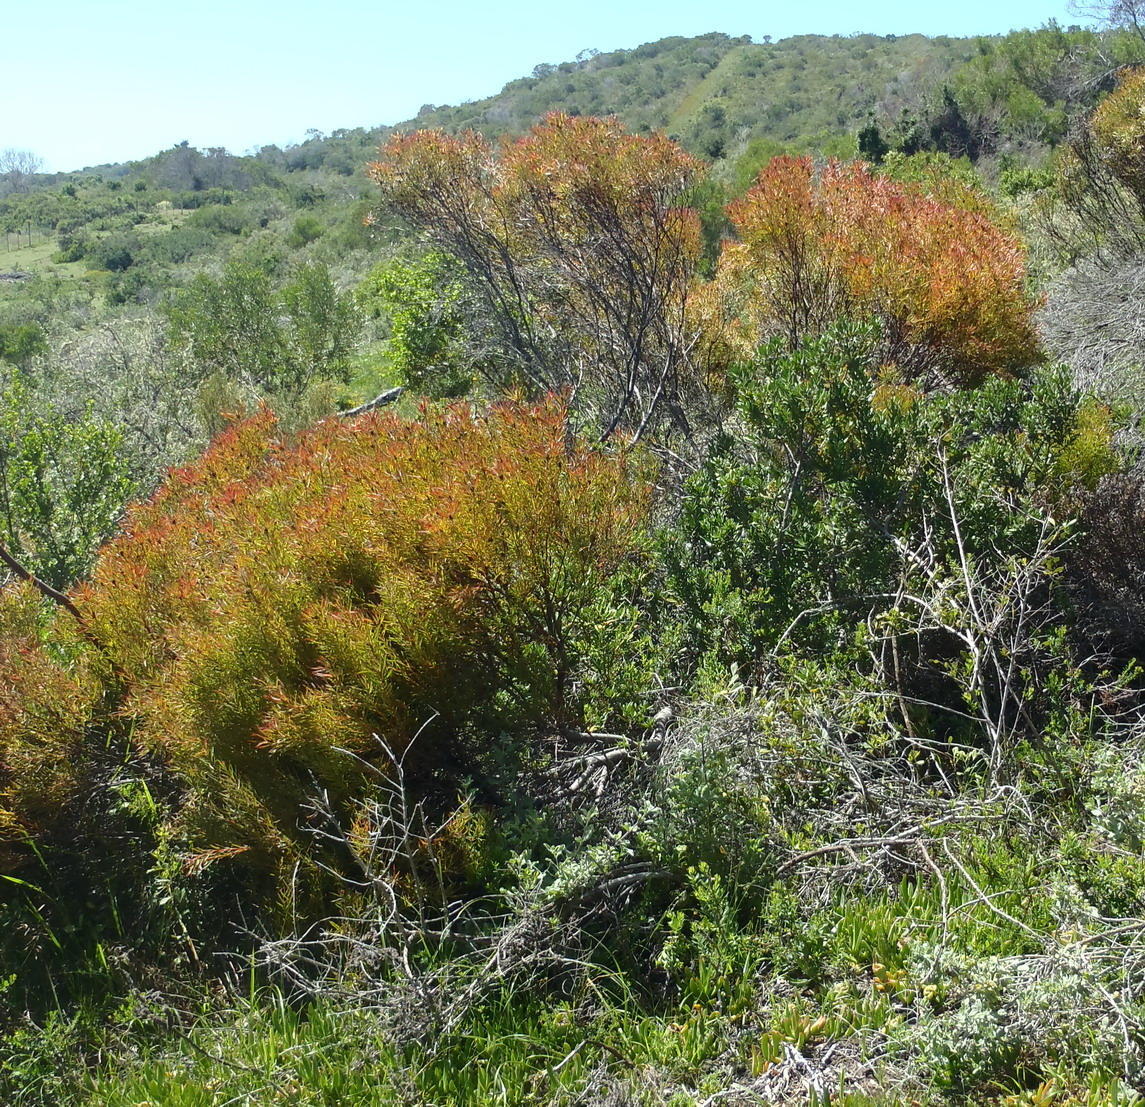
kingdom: Plantae
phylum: Tracheophyta
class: Magnoliopsida
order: Proteales
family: Proteaceae
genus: Leucadendron
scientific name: Leucadendron salignum
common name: Common sunshine conebush
